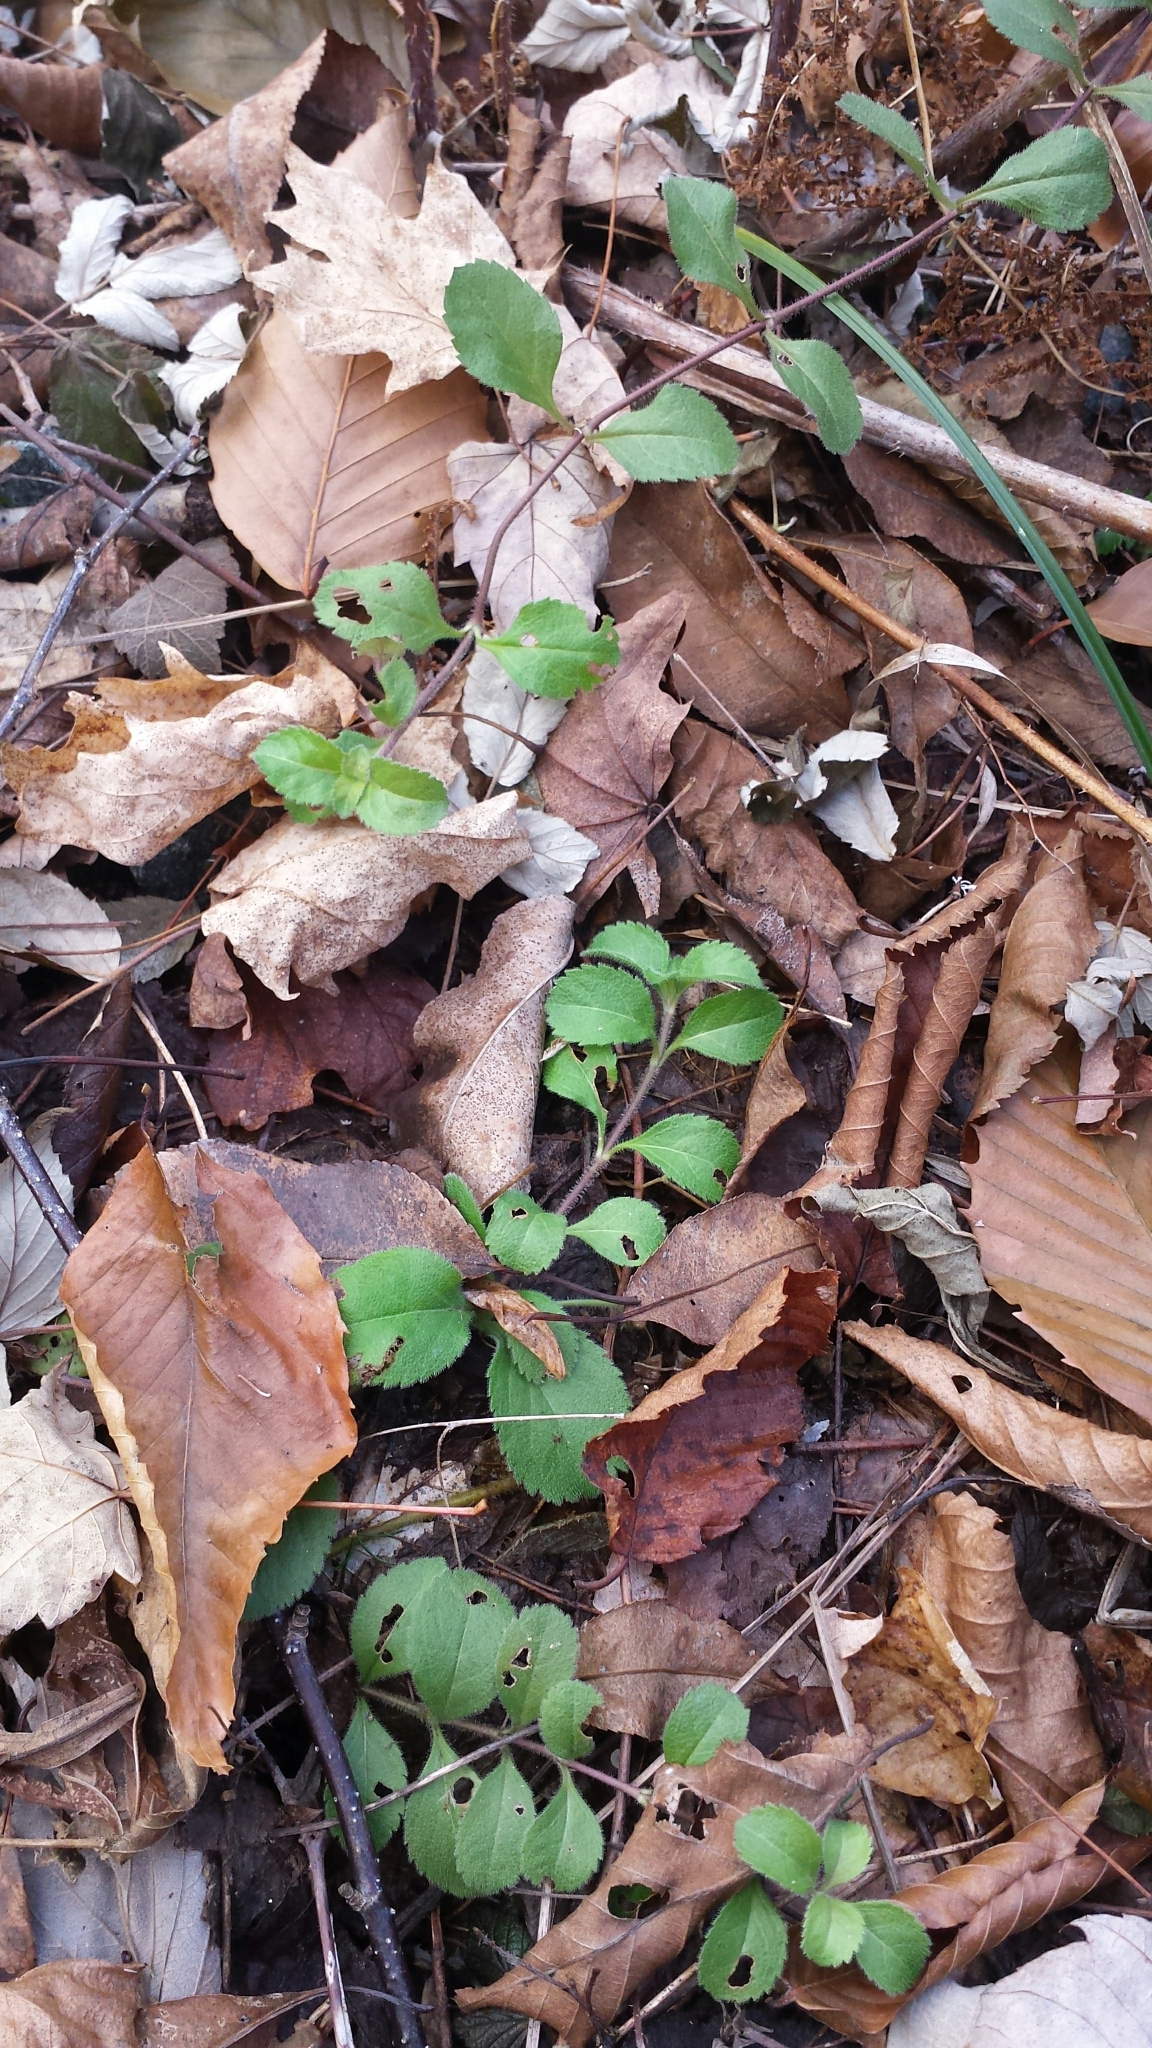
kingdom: Plantae
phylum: Tracheophyta
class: Magnoliopsida
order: Lamiales
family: Plantaginaceae
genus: Veronica
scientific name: Veronica officinalis
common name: Common speedwell
